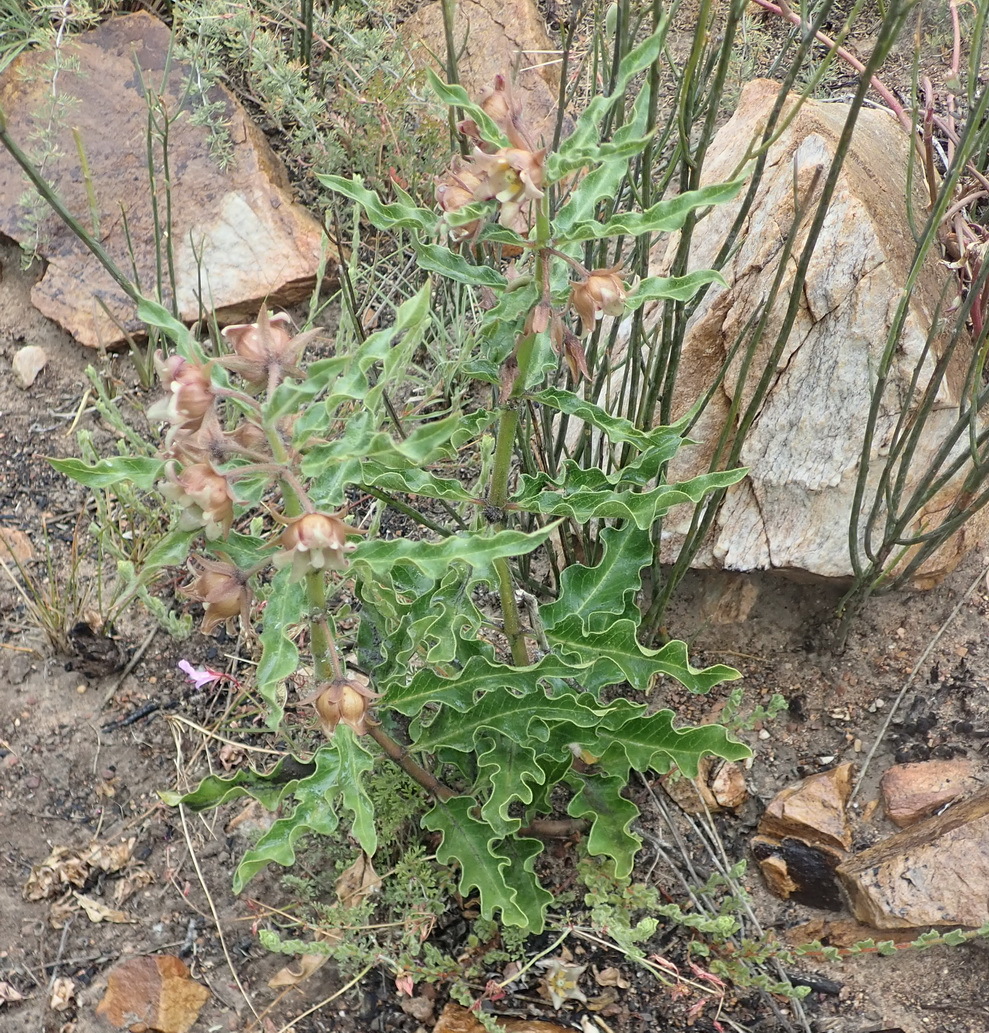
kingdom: Plantae
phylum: Tracheophyta
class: Magnoliopsida
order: Gentianales
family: Apocynaceae
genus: Pachycarpus
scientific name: Pachycarpus dealbatus
